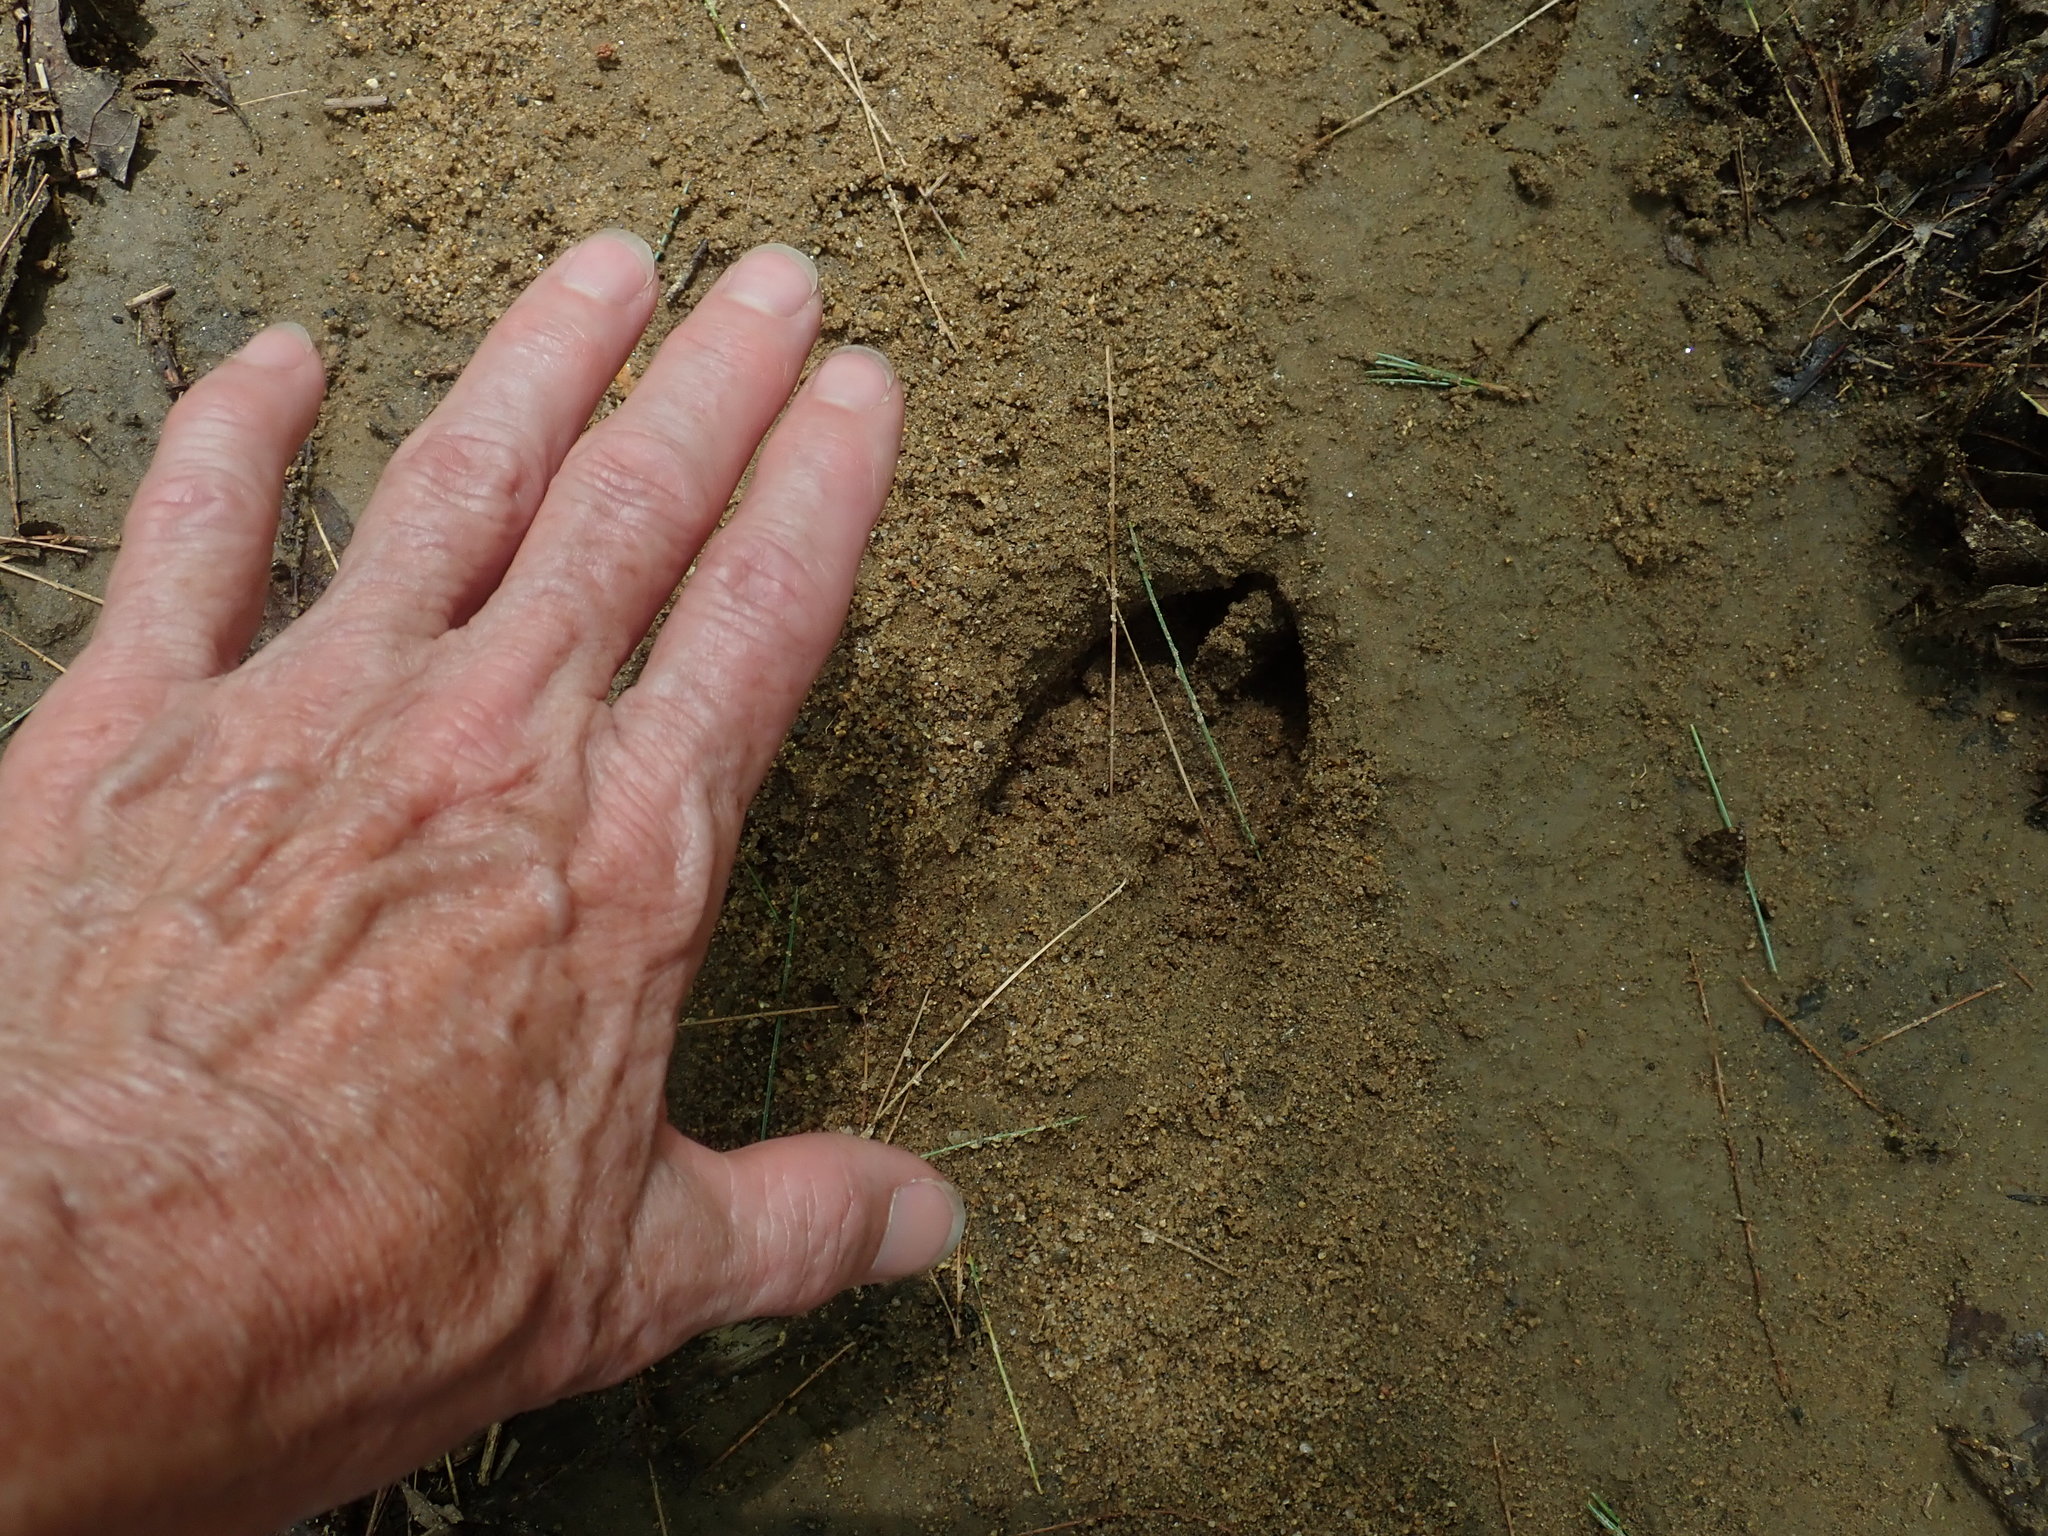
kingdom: Animalia
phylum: Chordata
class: Mammalia
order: Artiodactyla
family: Cervidae
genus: Odocoileus
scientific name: Odocoileus virginianus
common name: White-tailed deer
